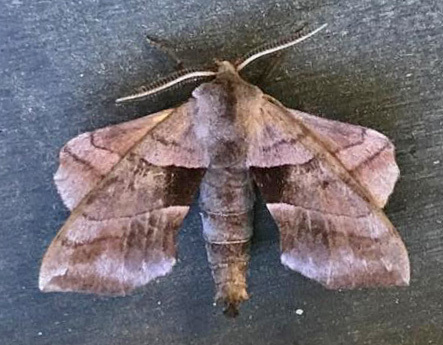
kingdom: Animalia
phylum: Arthropoda
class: Insecta
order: Lepidoptera
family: Sphingidae
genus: Amorpha
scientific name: Amorpha juglandis
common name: Walnut sphinx
